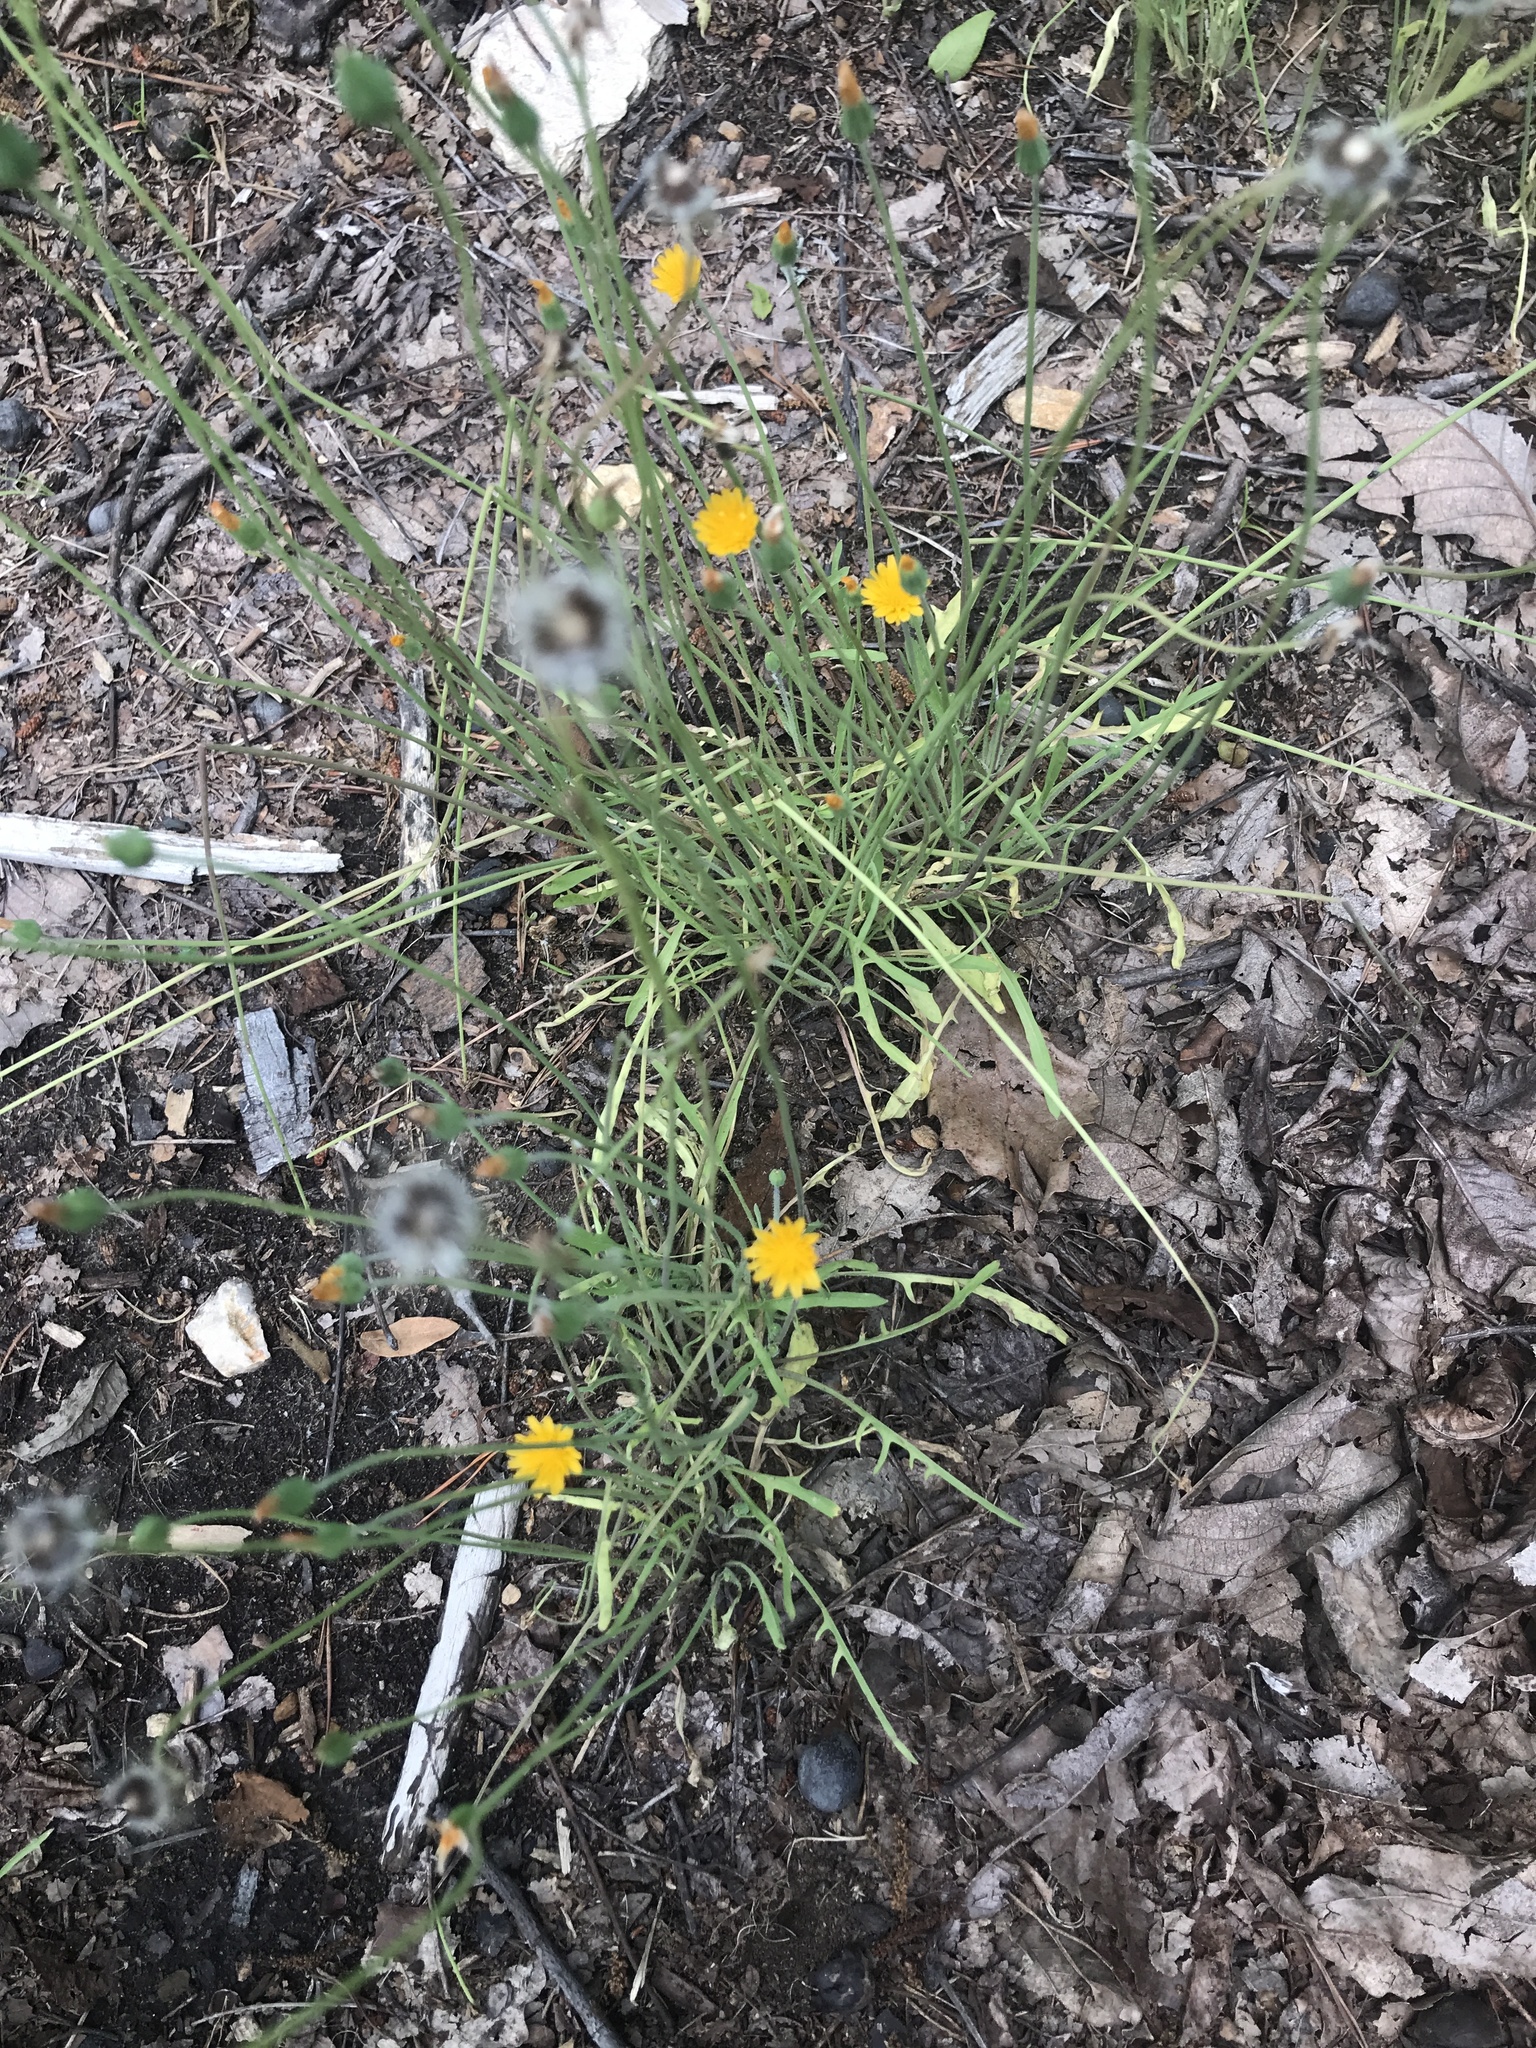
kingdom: Plantae
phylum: Tracheophyta
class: Magnoliopsida
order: Asterales
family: Asteraceae
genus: Krigia
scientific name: Krigia virginica
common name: Virginia dwarf-dandelion
